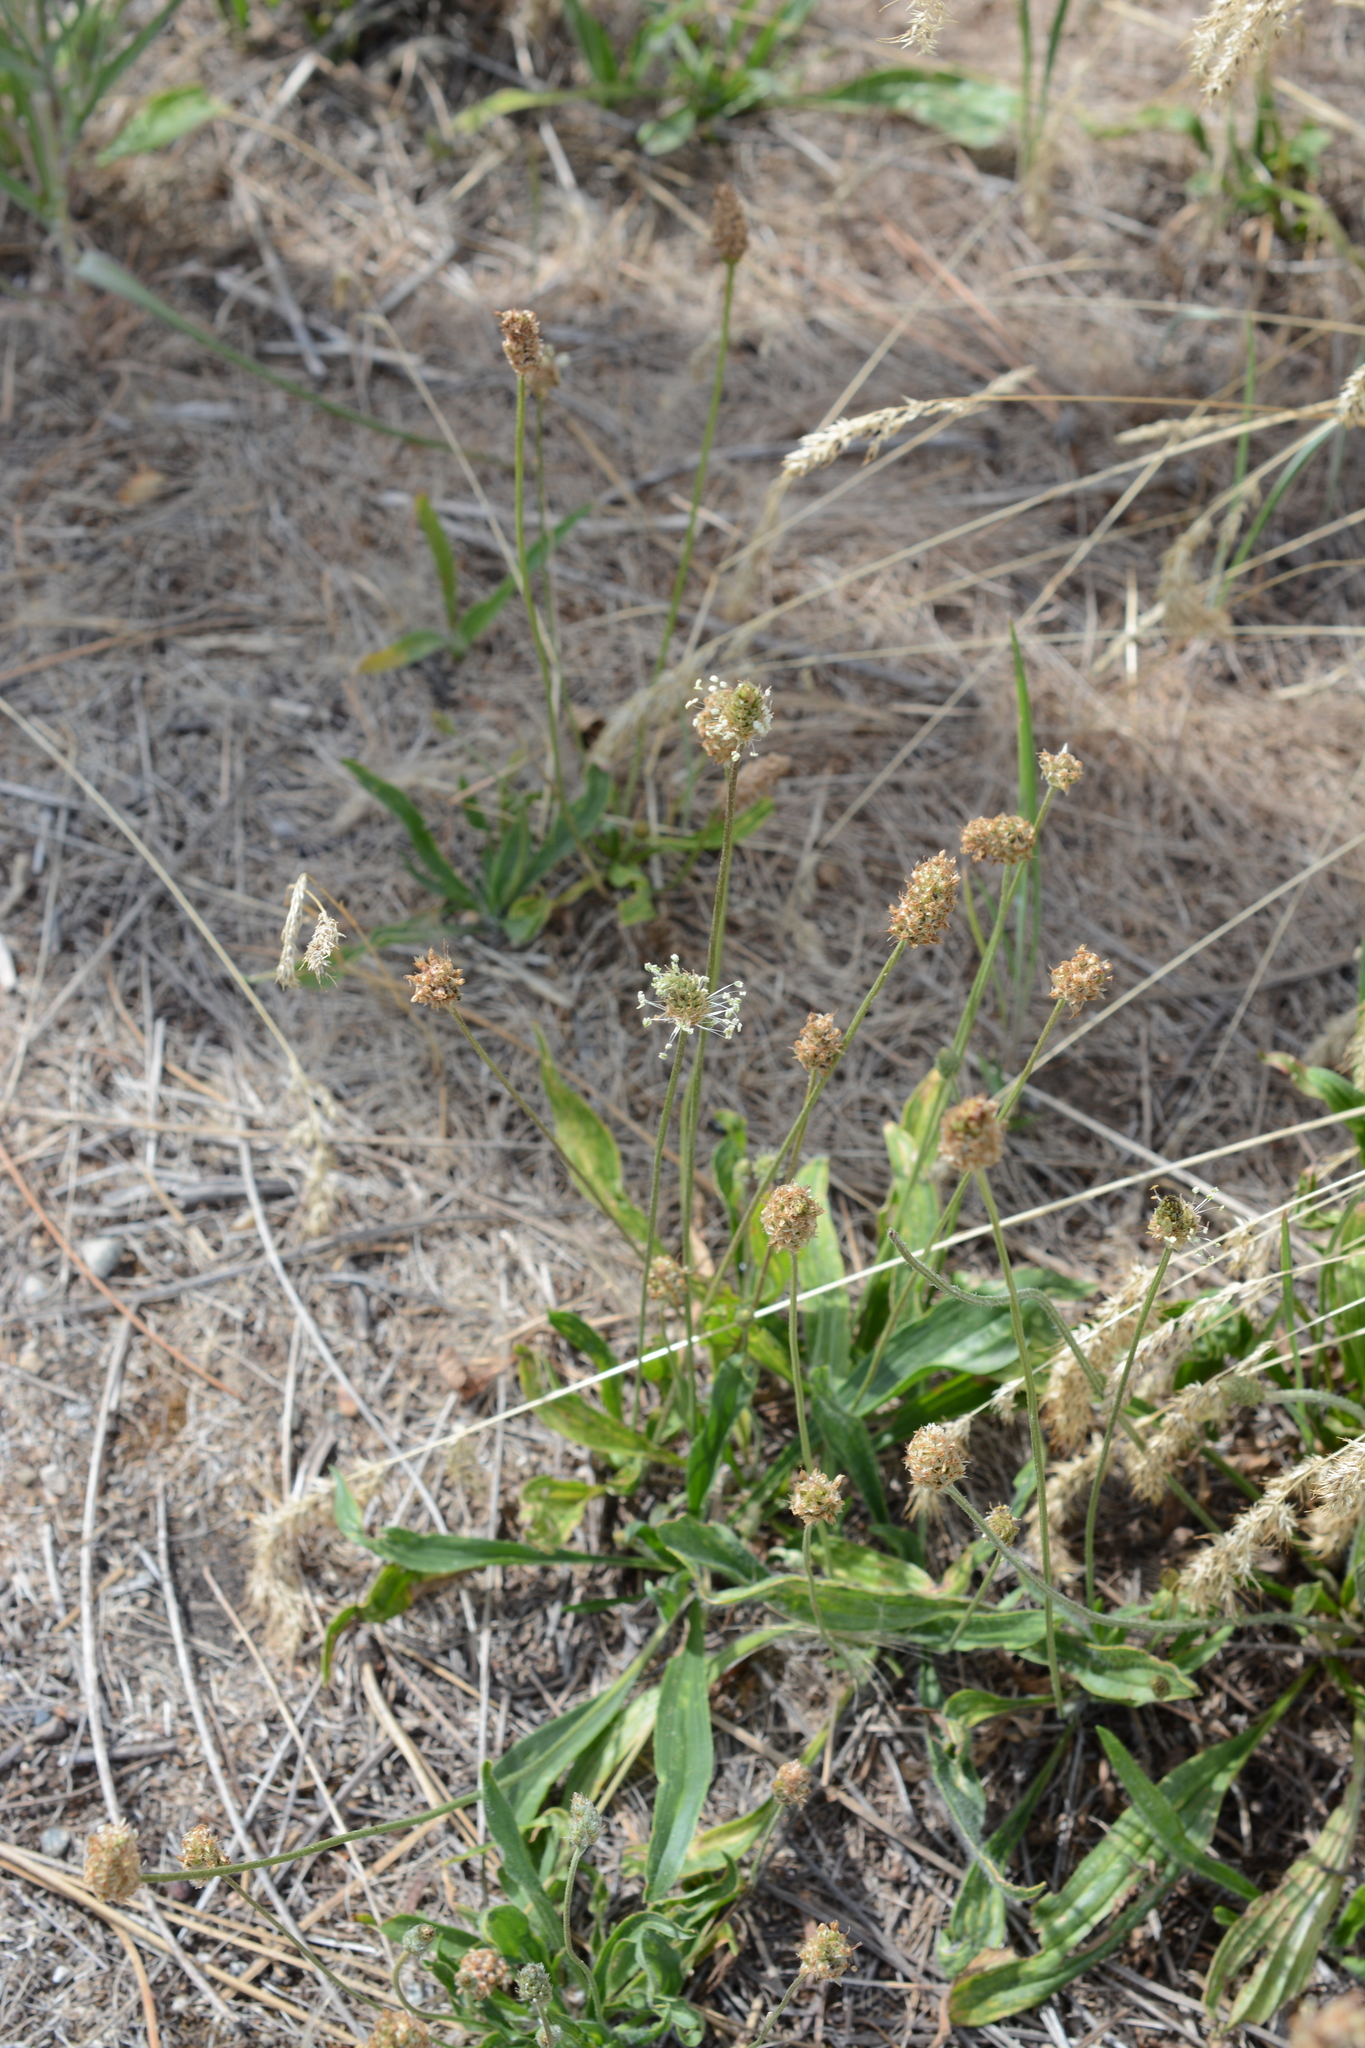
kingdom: Plantae
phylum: Tracheophyta
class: Magnoliopsida
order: Lamiales
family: Plantaginaceae
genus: Plantago
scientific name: Plantago lanceolata
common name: Ribwort plantain
